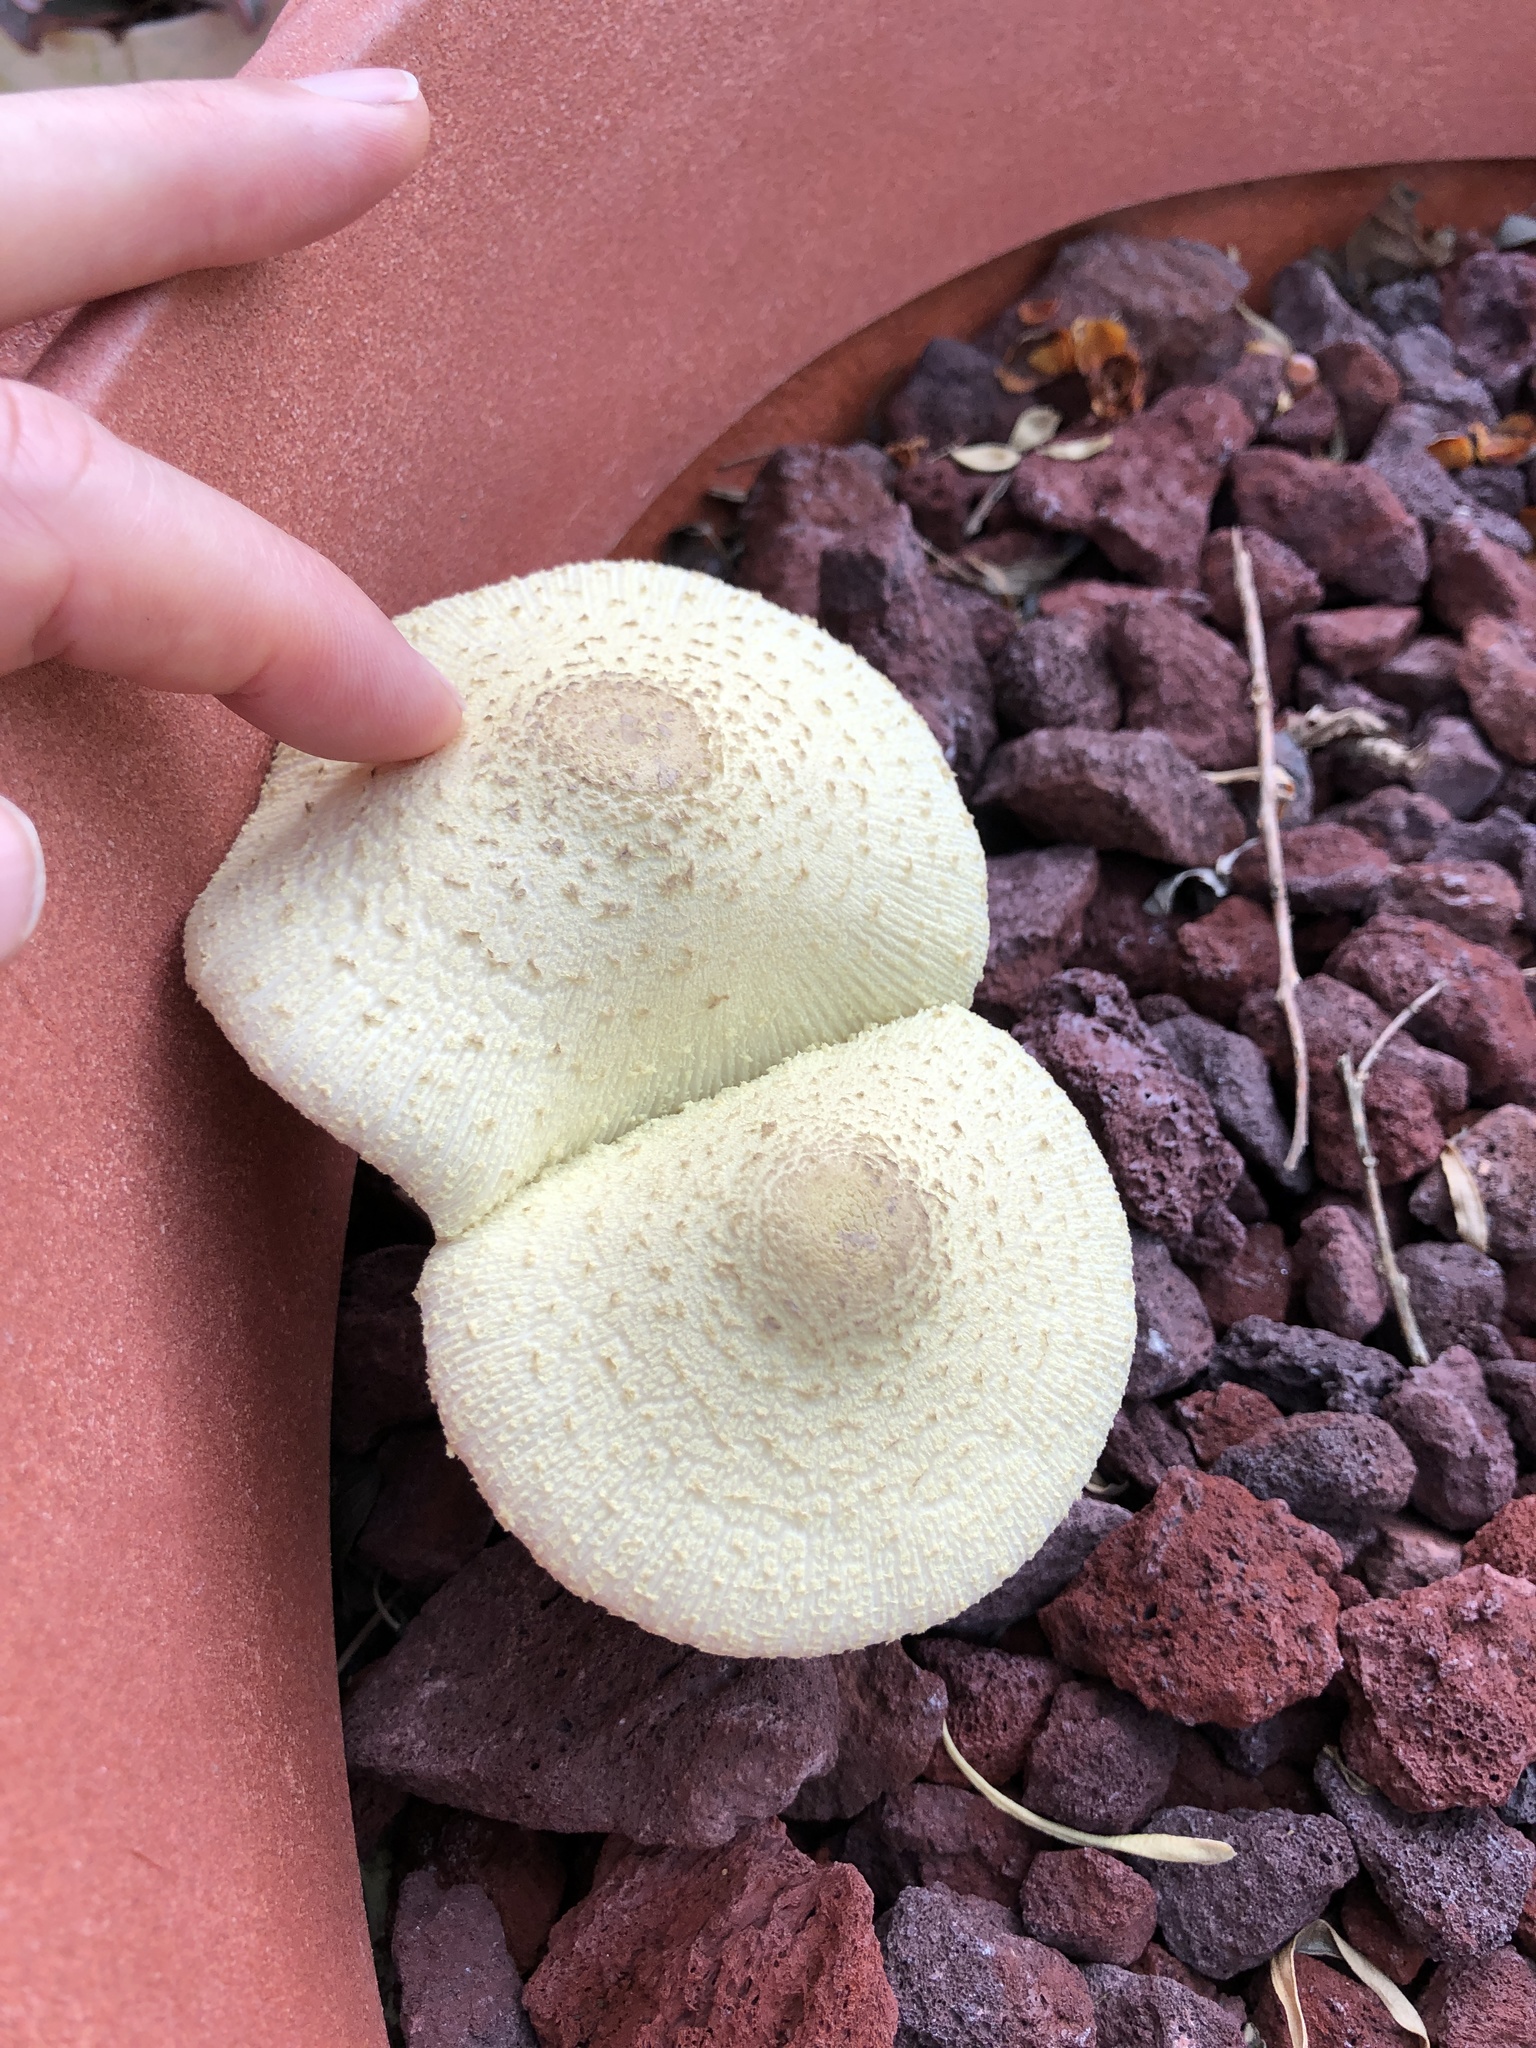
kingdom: Fungi
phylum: Basidiomycota
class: Agaricomycetes
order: Agaricales
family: Agaricaceae
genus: Leucocoprinus
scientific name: Leucocoprinus birnbaumii
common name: Plantpot dapperling
